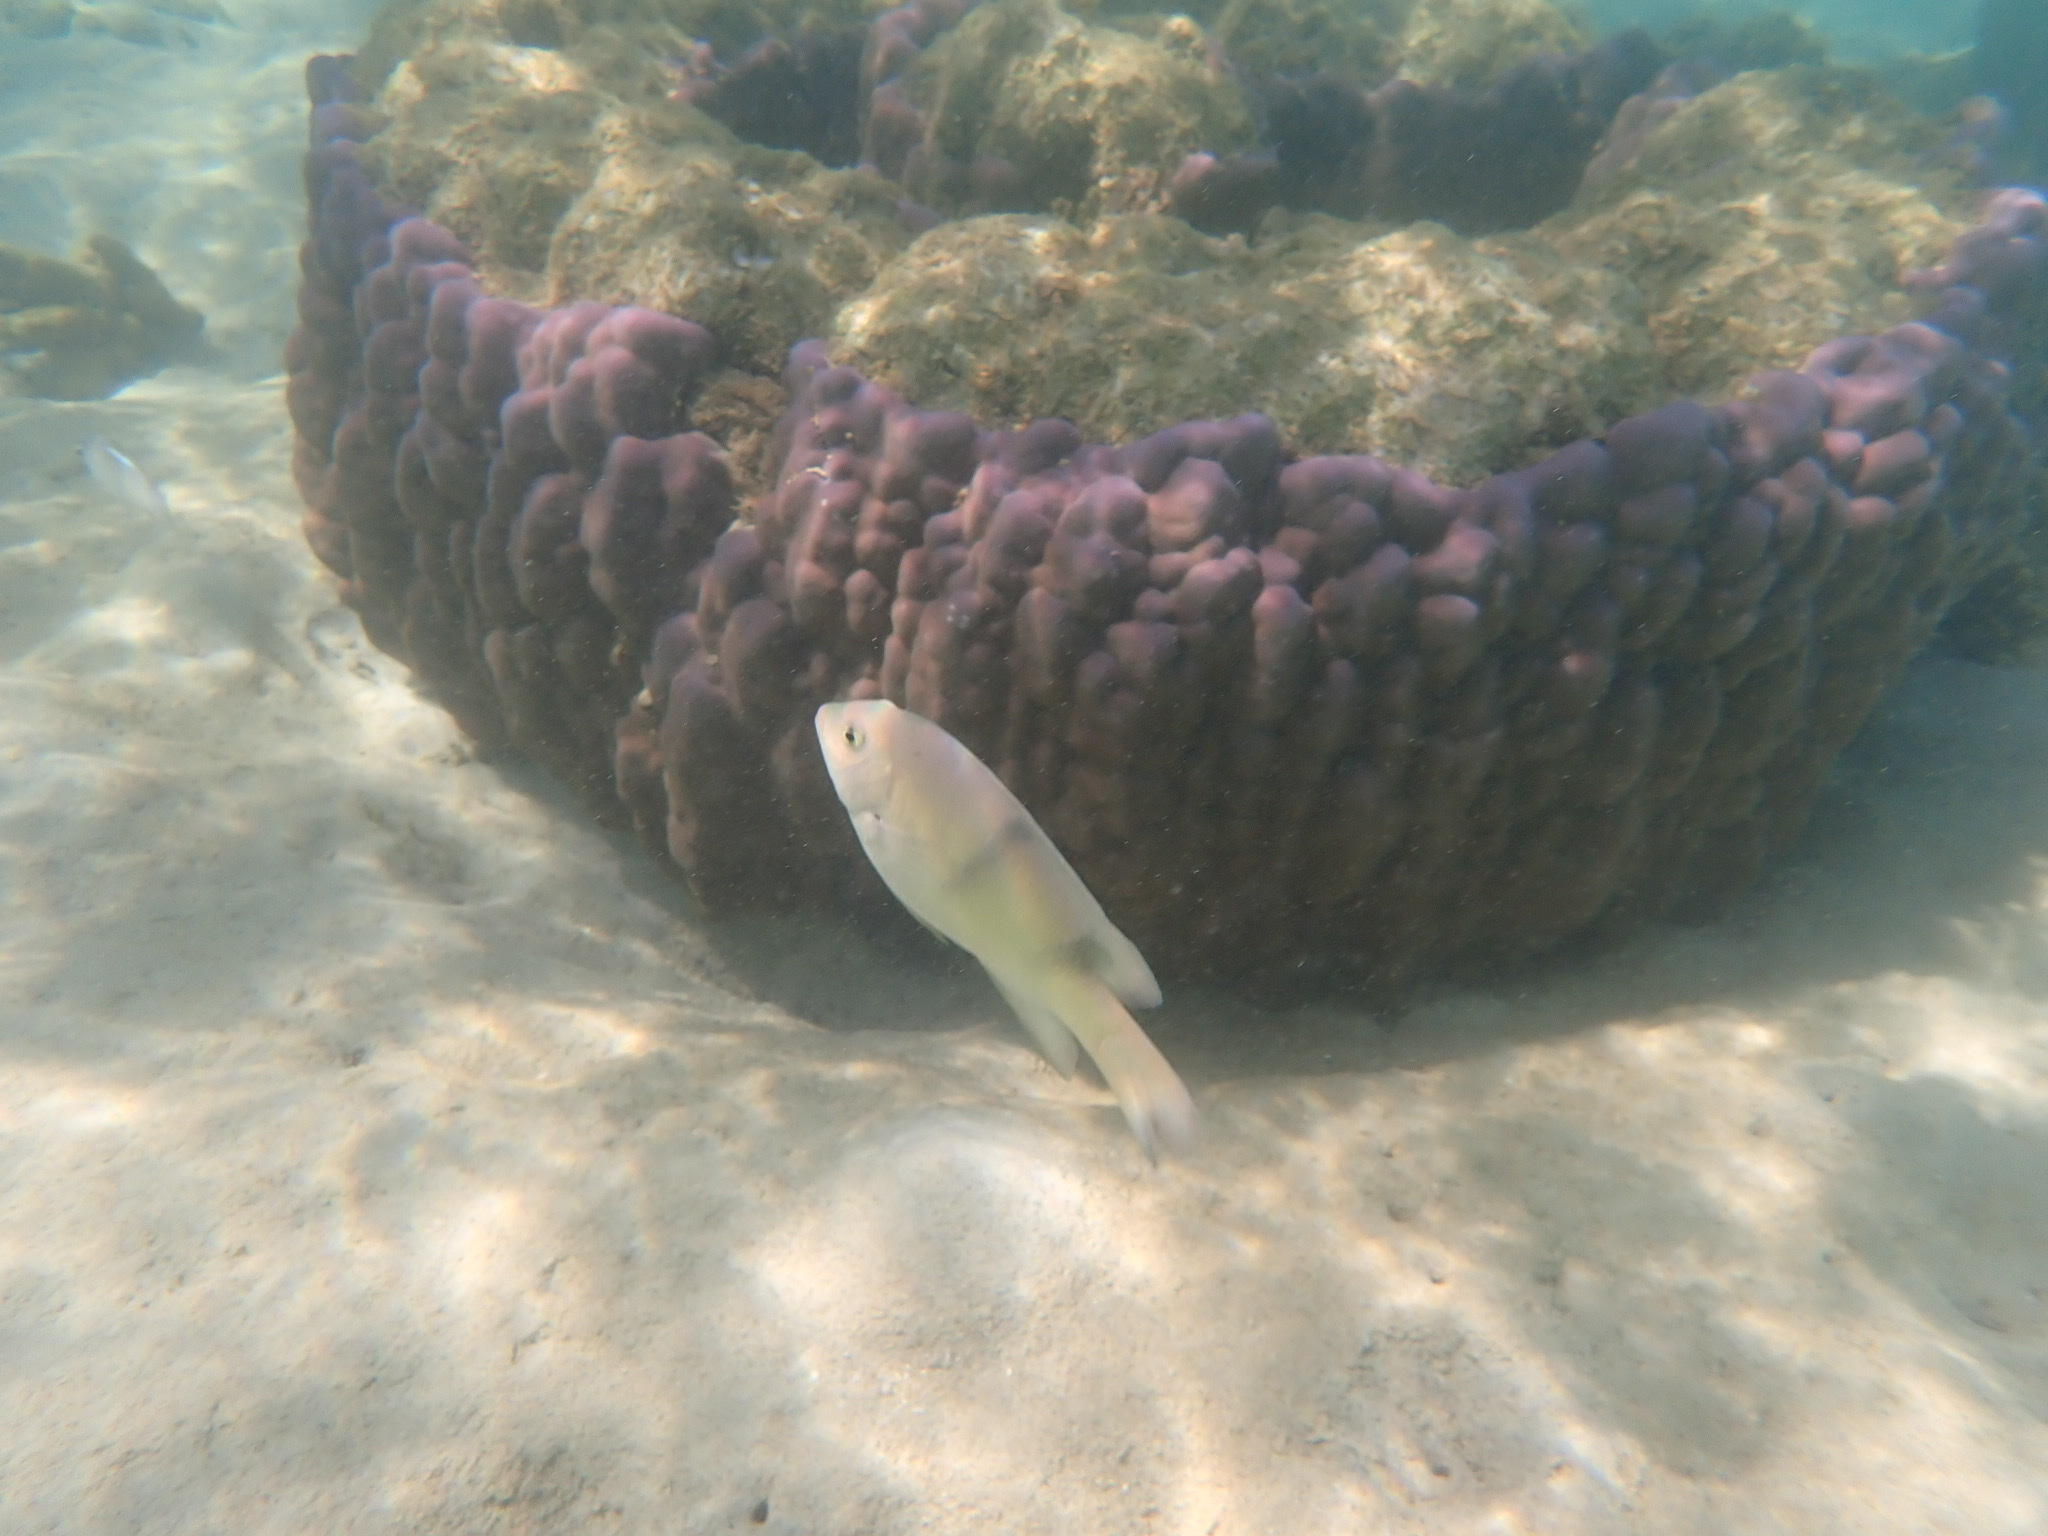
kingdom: Animalia
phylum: Chordata
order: Perciformes
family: Pomacentridae
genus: Dischistodus
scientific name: Dischistodus perspicillatus
